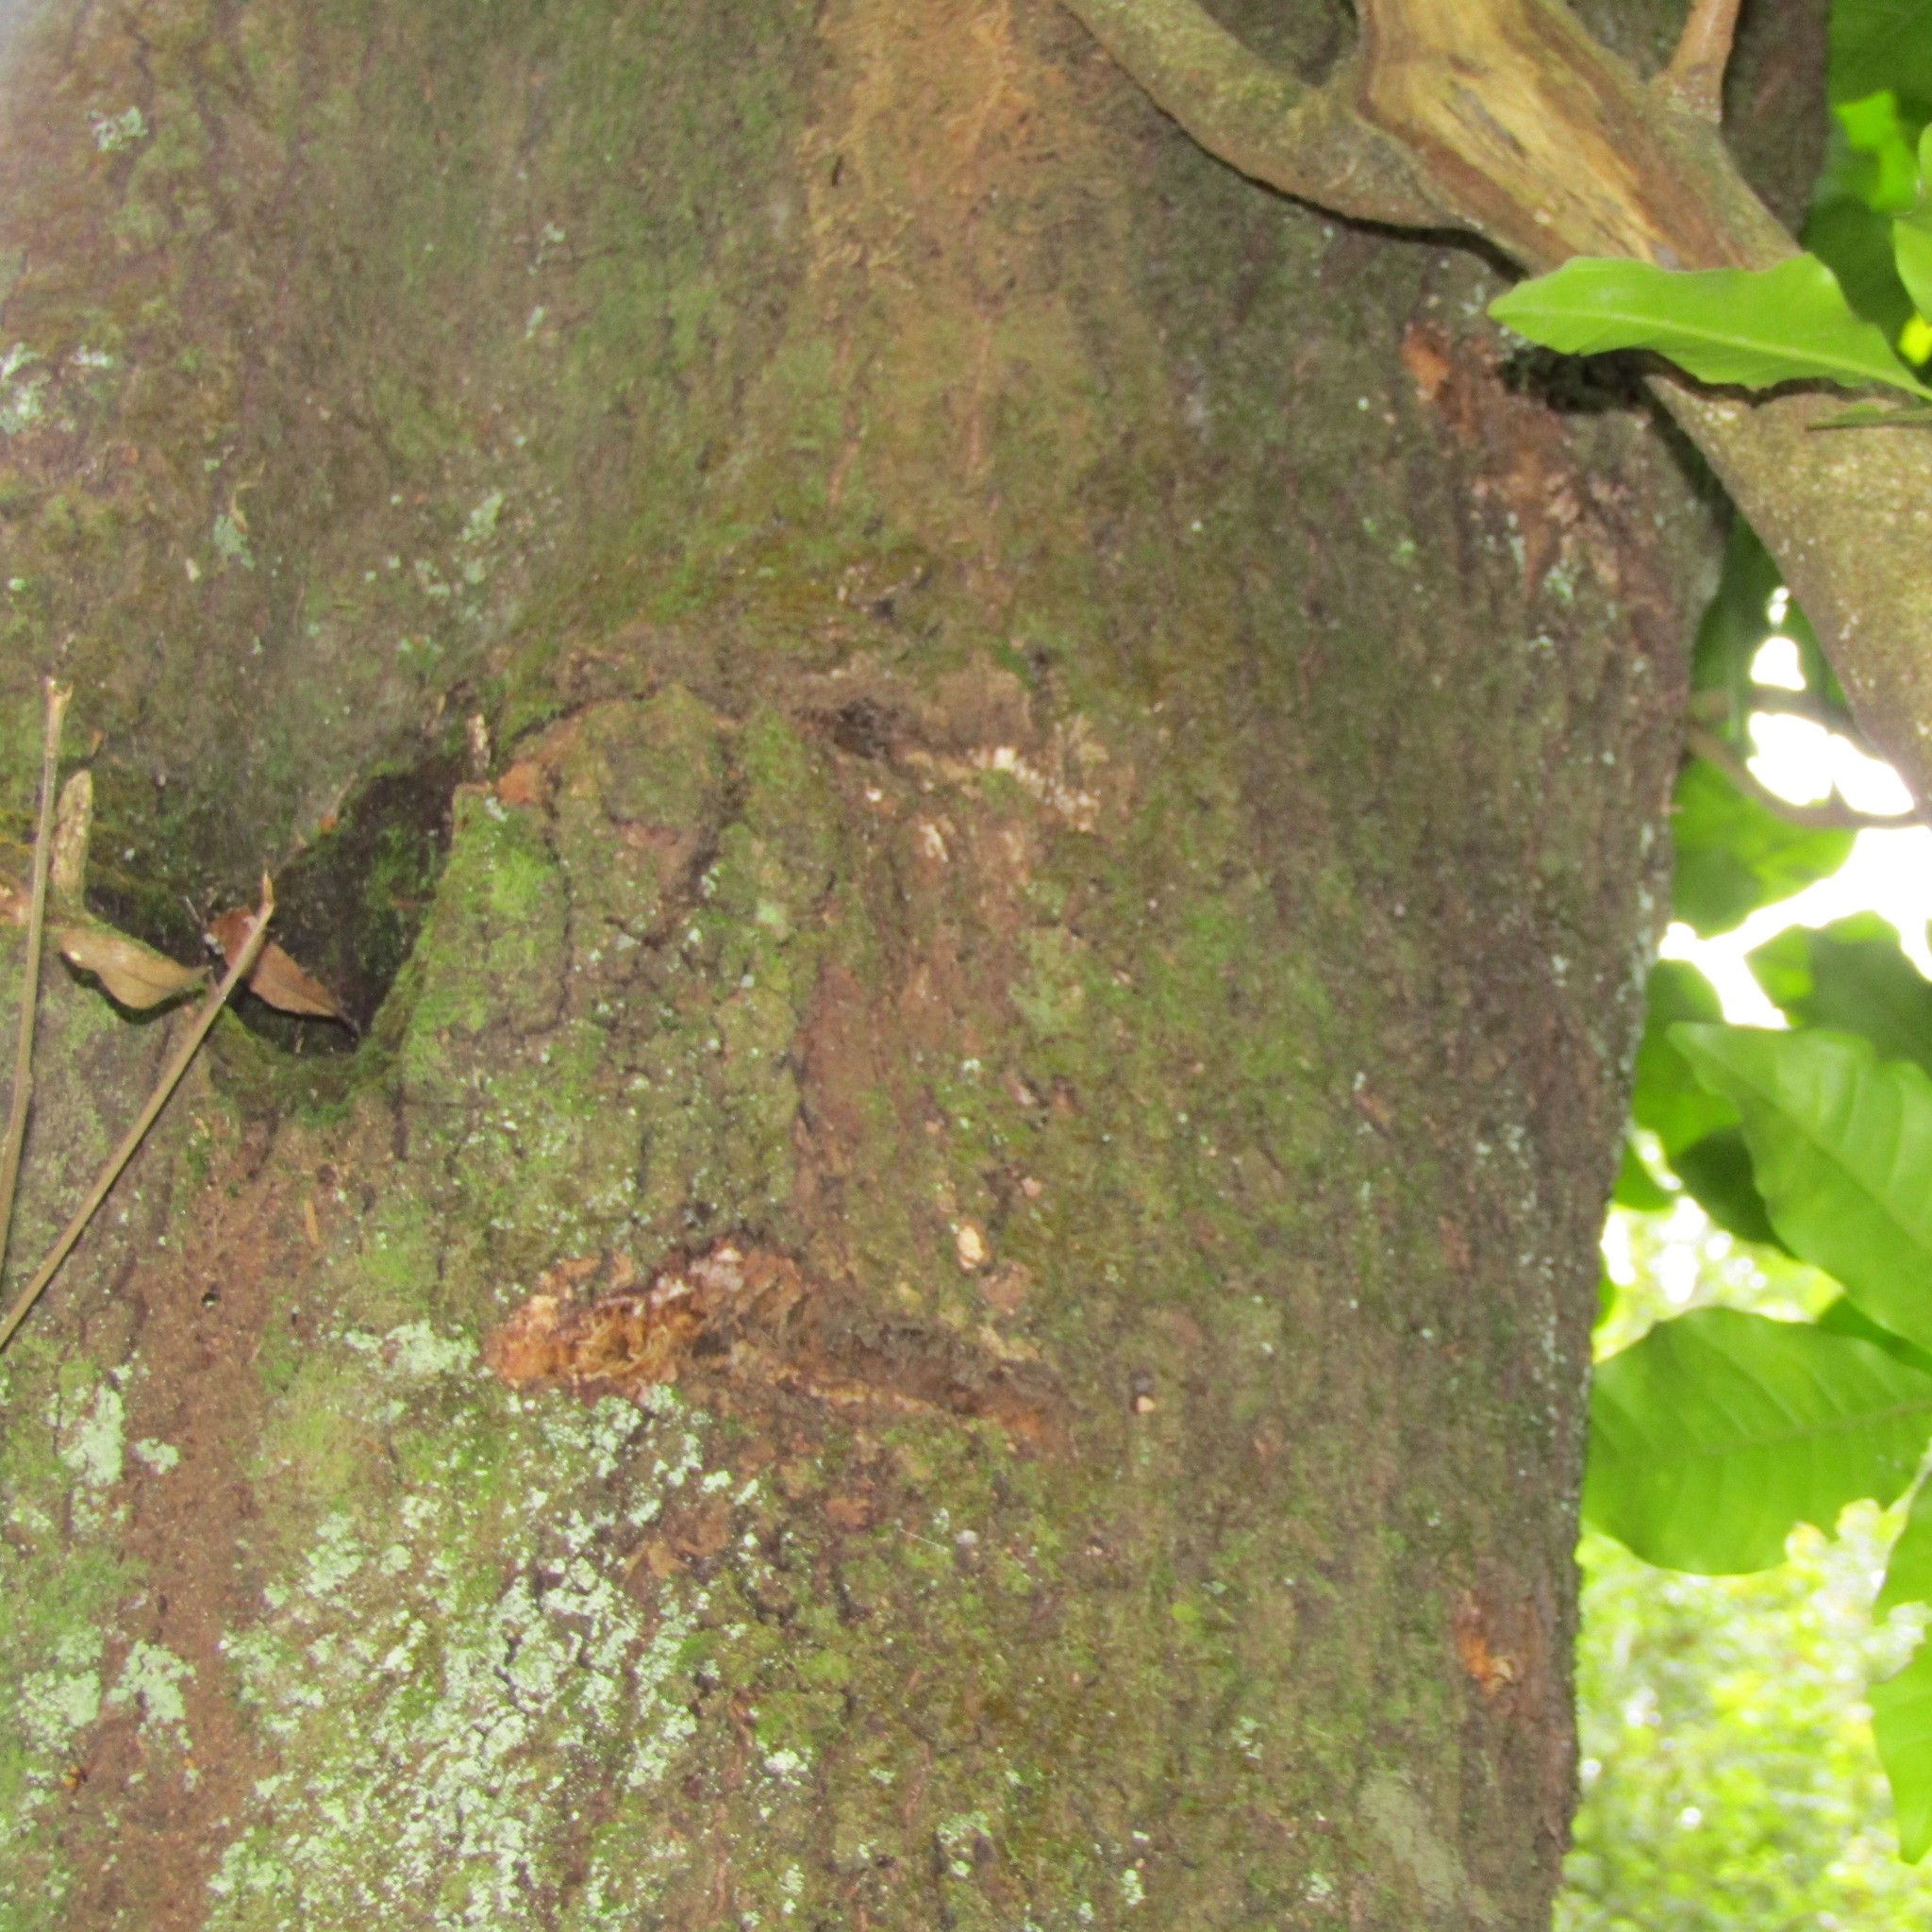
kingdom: Animalia
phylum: Chordata
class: Aves
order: Psittaciformes
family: Psittacidae
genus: Nestor
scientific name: Nestor meridionalis
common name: New zealand kaka
